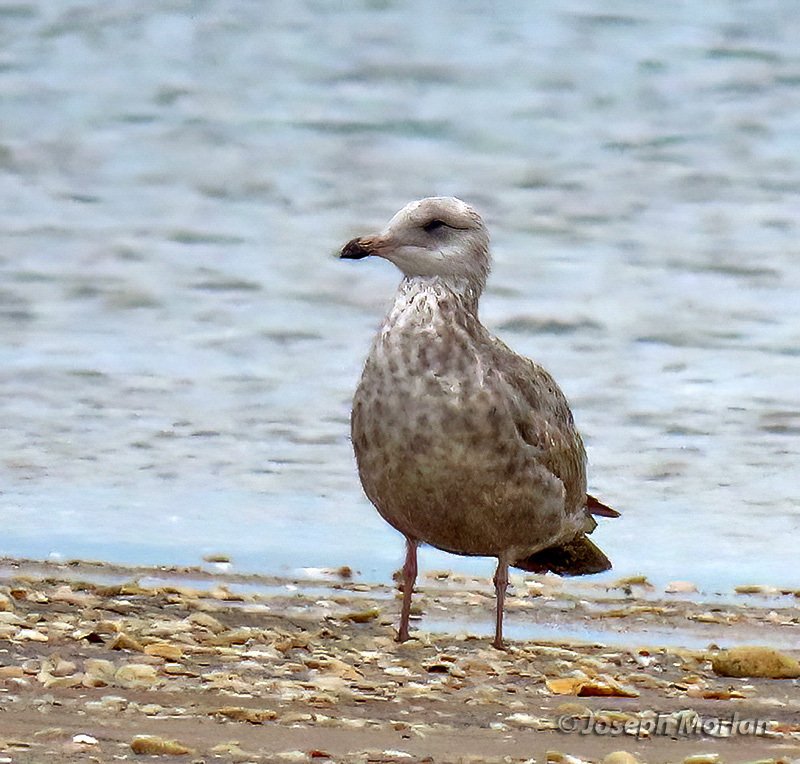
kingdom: Animalia
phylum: Chordata
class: Aves
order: Charadriiformes
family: Laridae
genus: Larus
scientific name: Larus argentatus
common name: Herring gull
